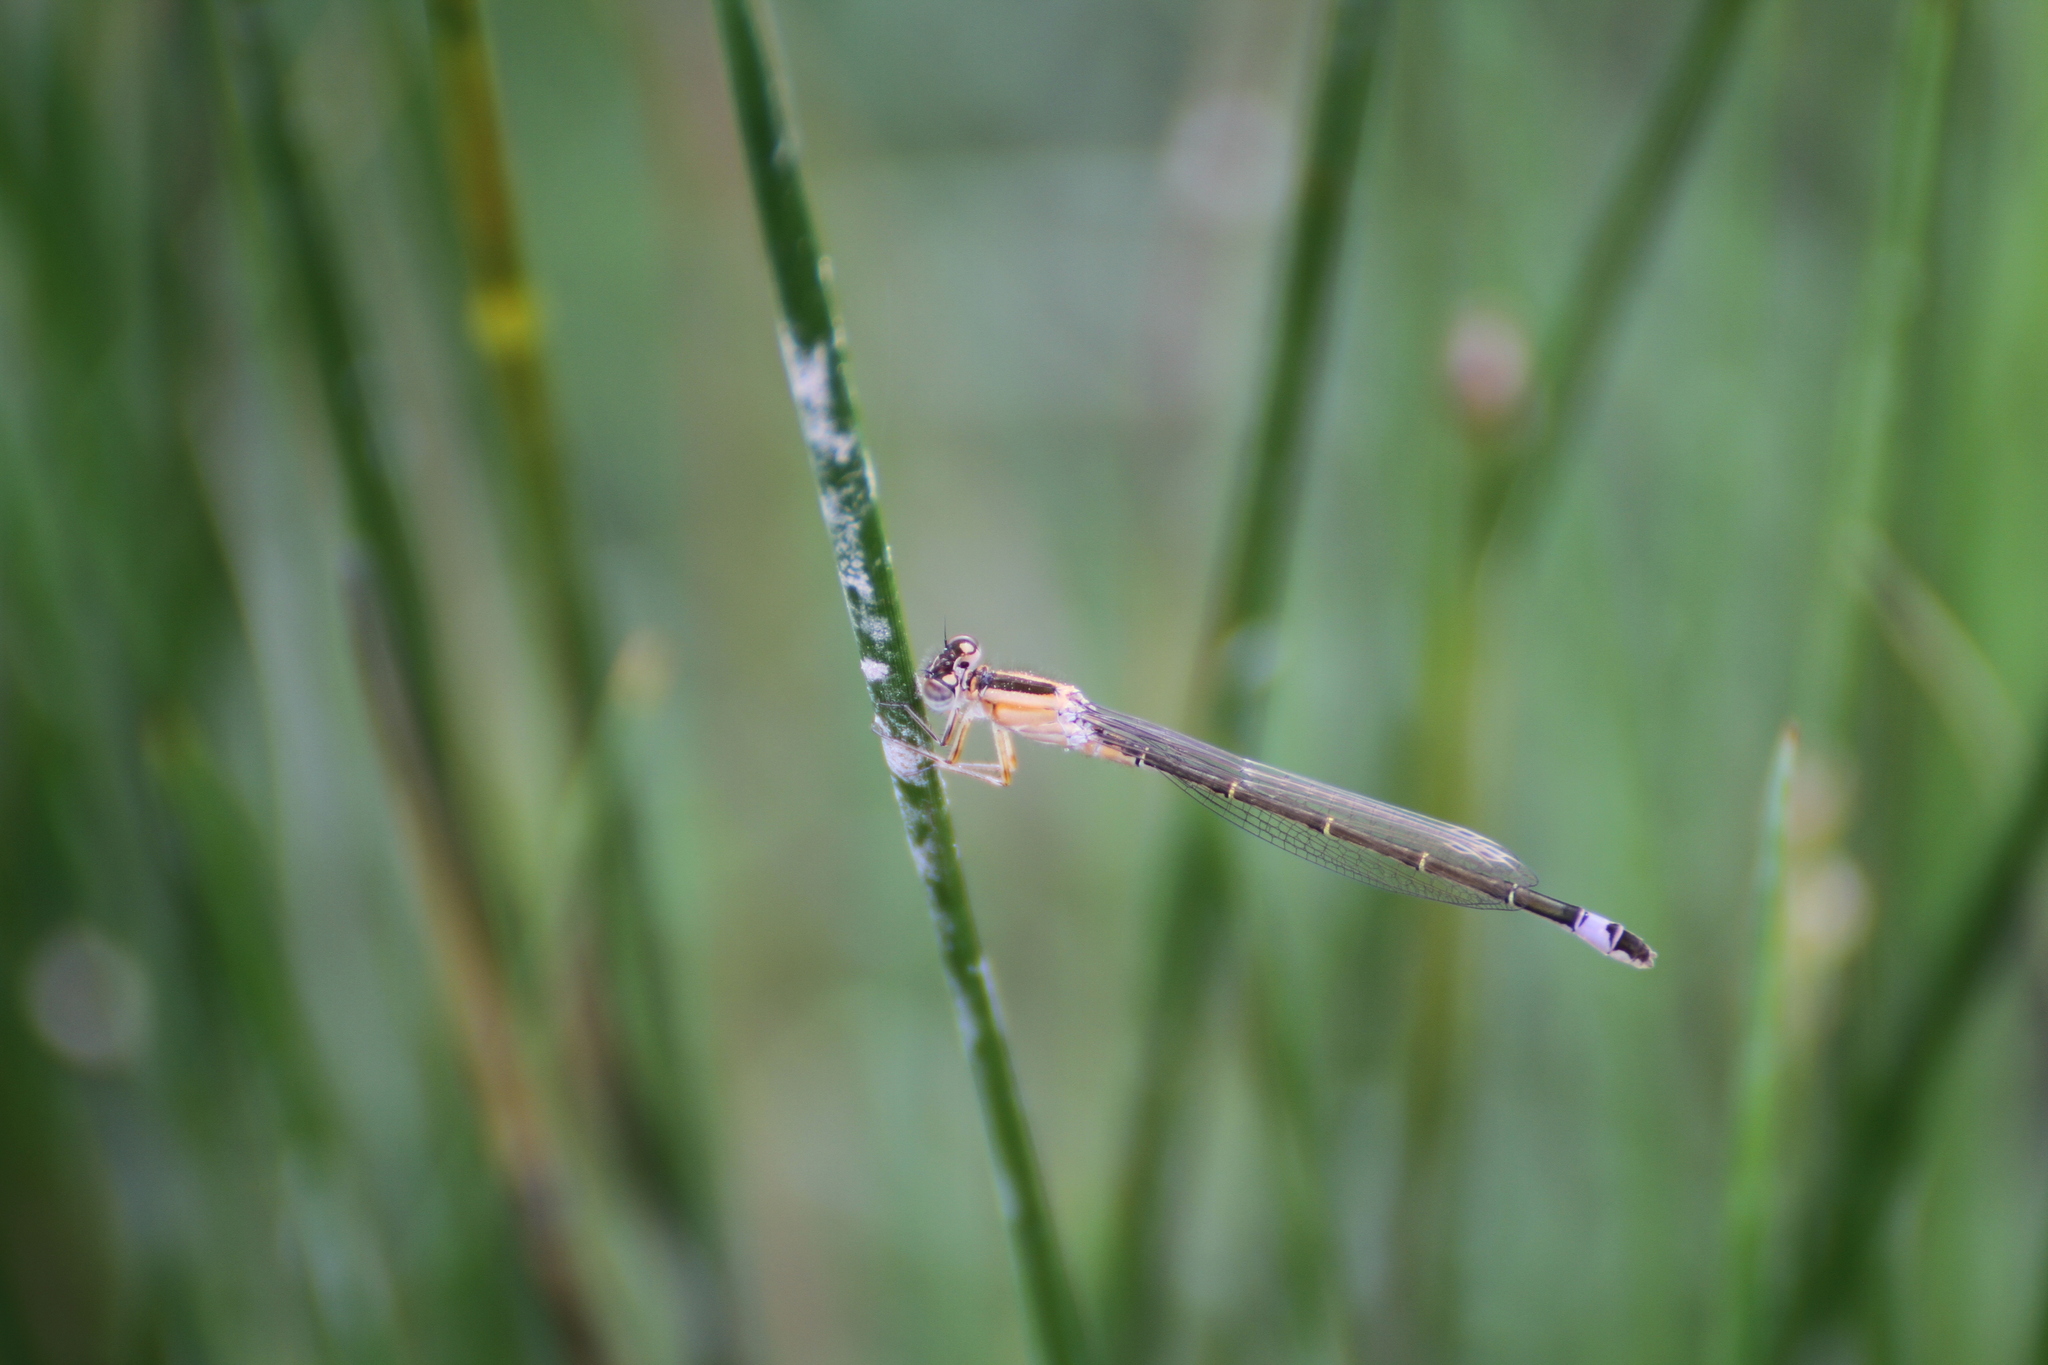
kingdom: Animalia
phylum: Arthropoda
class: Insecta
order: Odonata
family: Coenagrionidae
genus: Ischnura
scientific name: Ischnura elegans
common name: Blue-tailed damselfly
